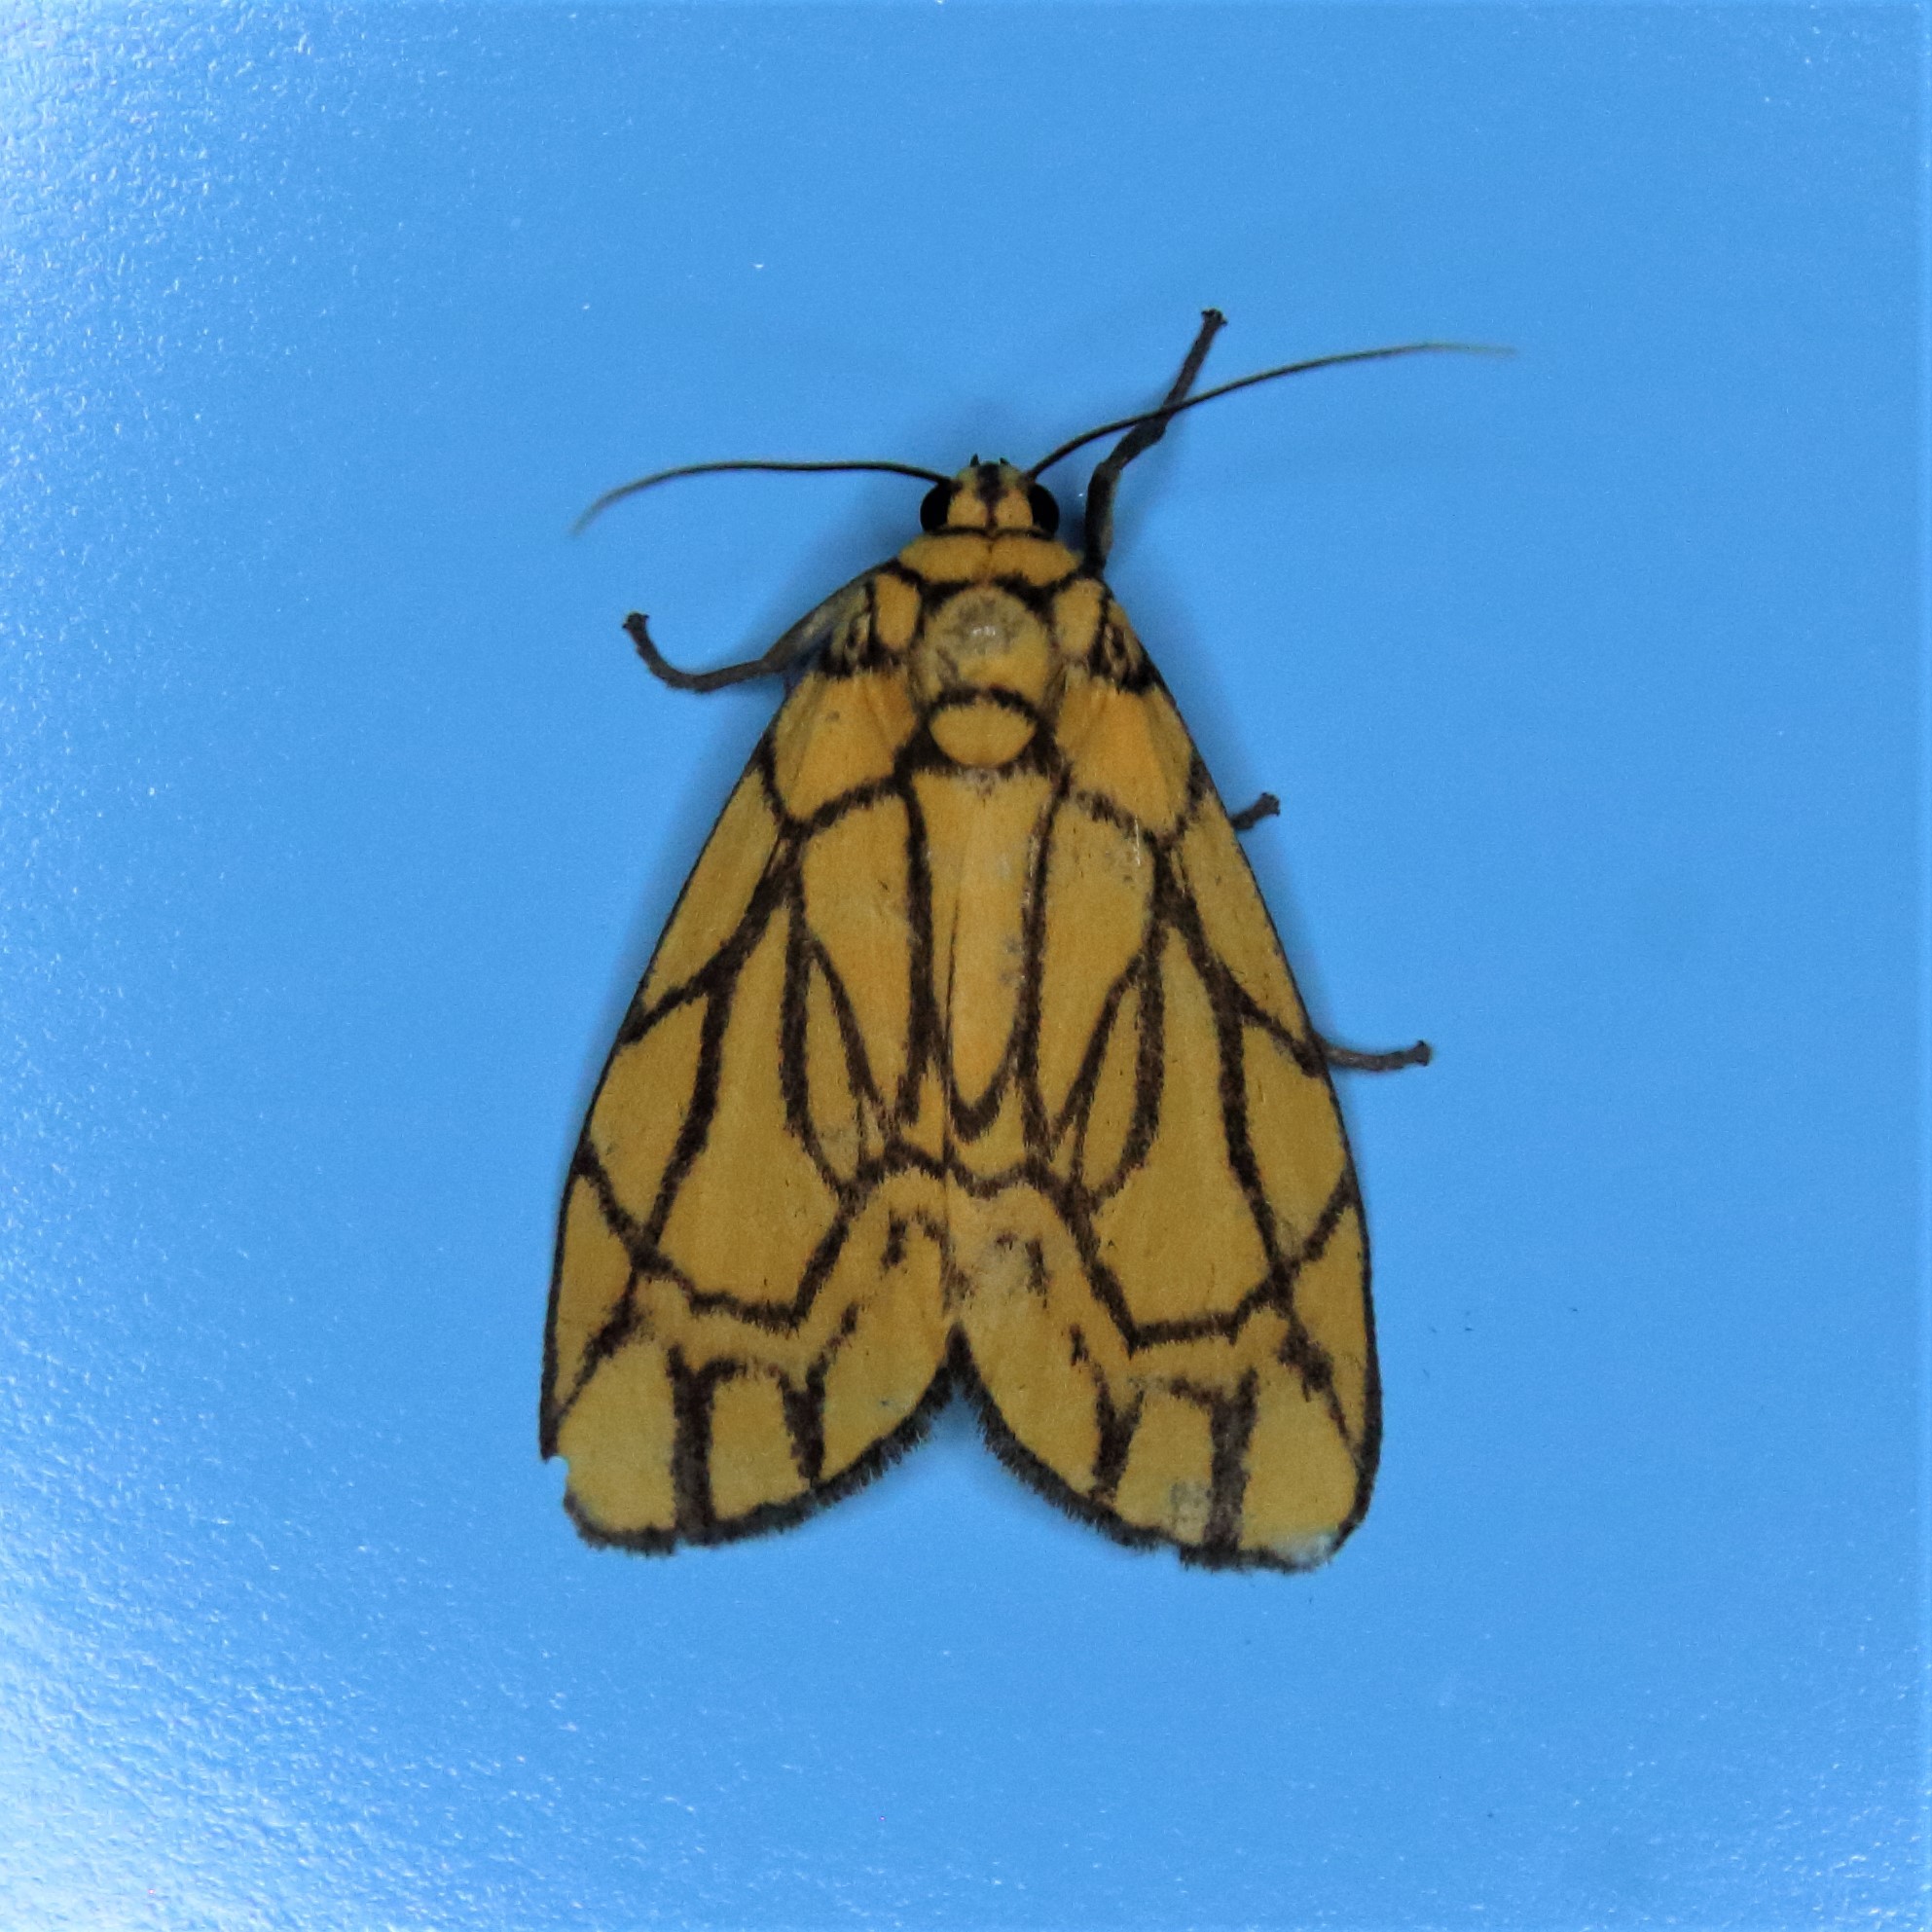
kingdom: Animalia
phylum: Arthropoda
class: Insecta
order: Lepidoptera
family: Erebidae
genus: Cyme
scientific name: Cyme euprepioides
